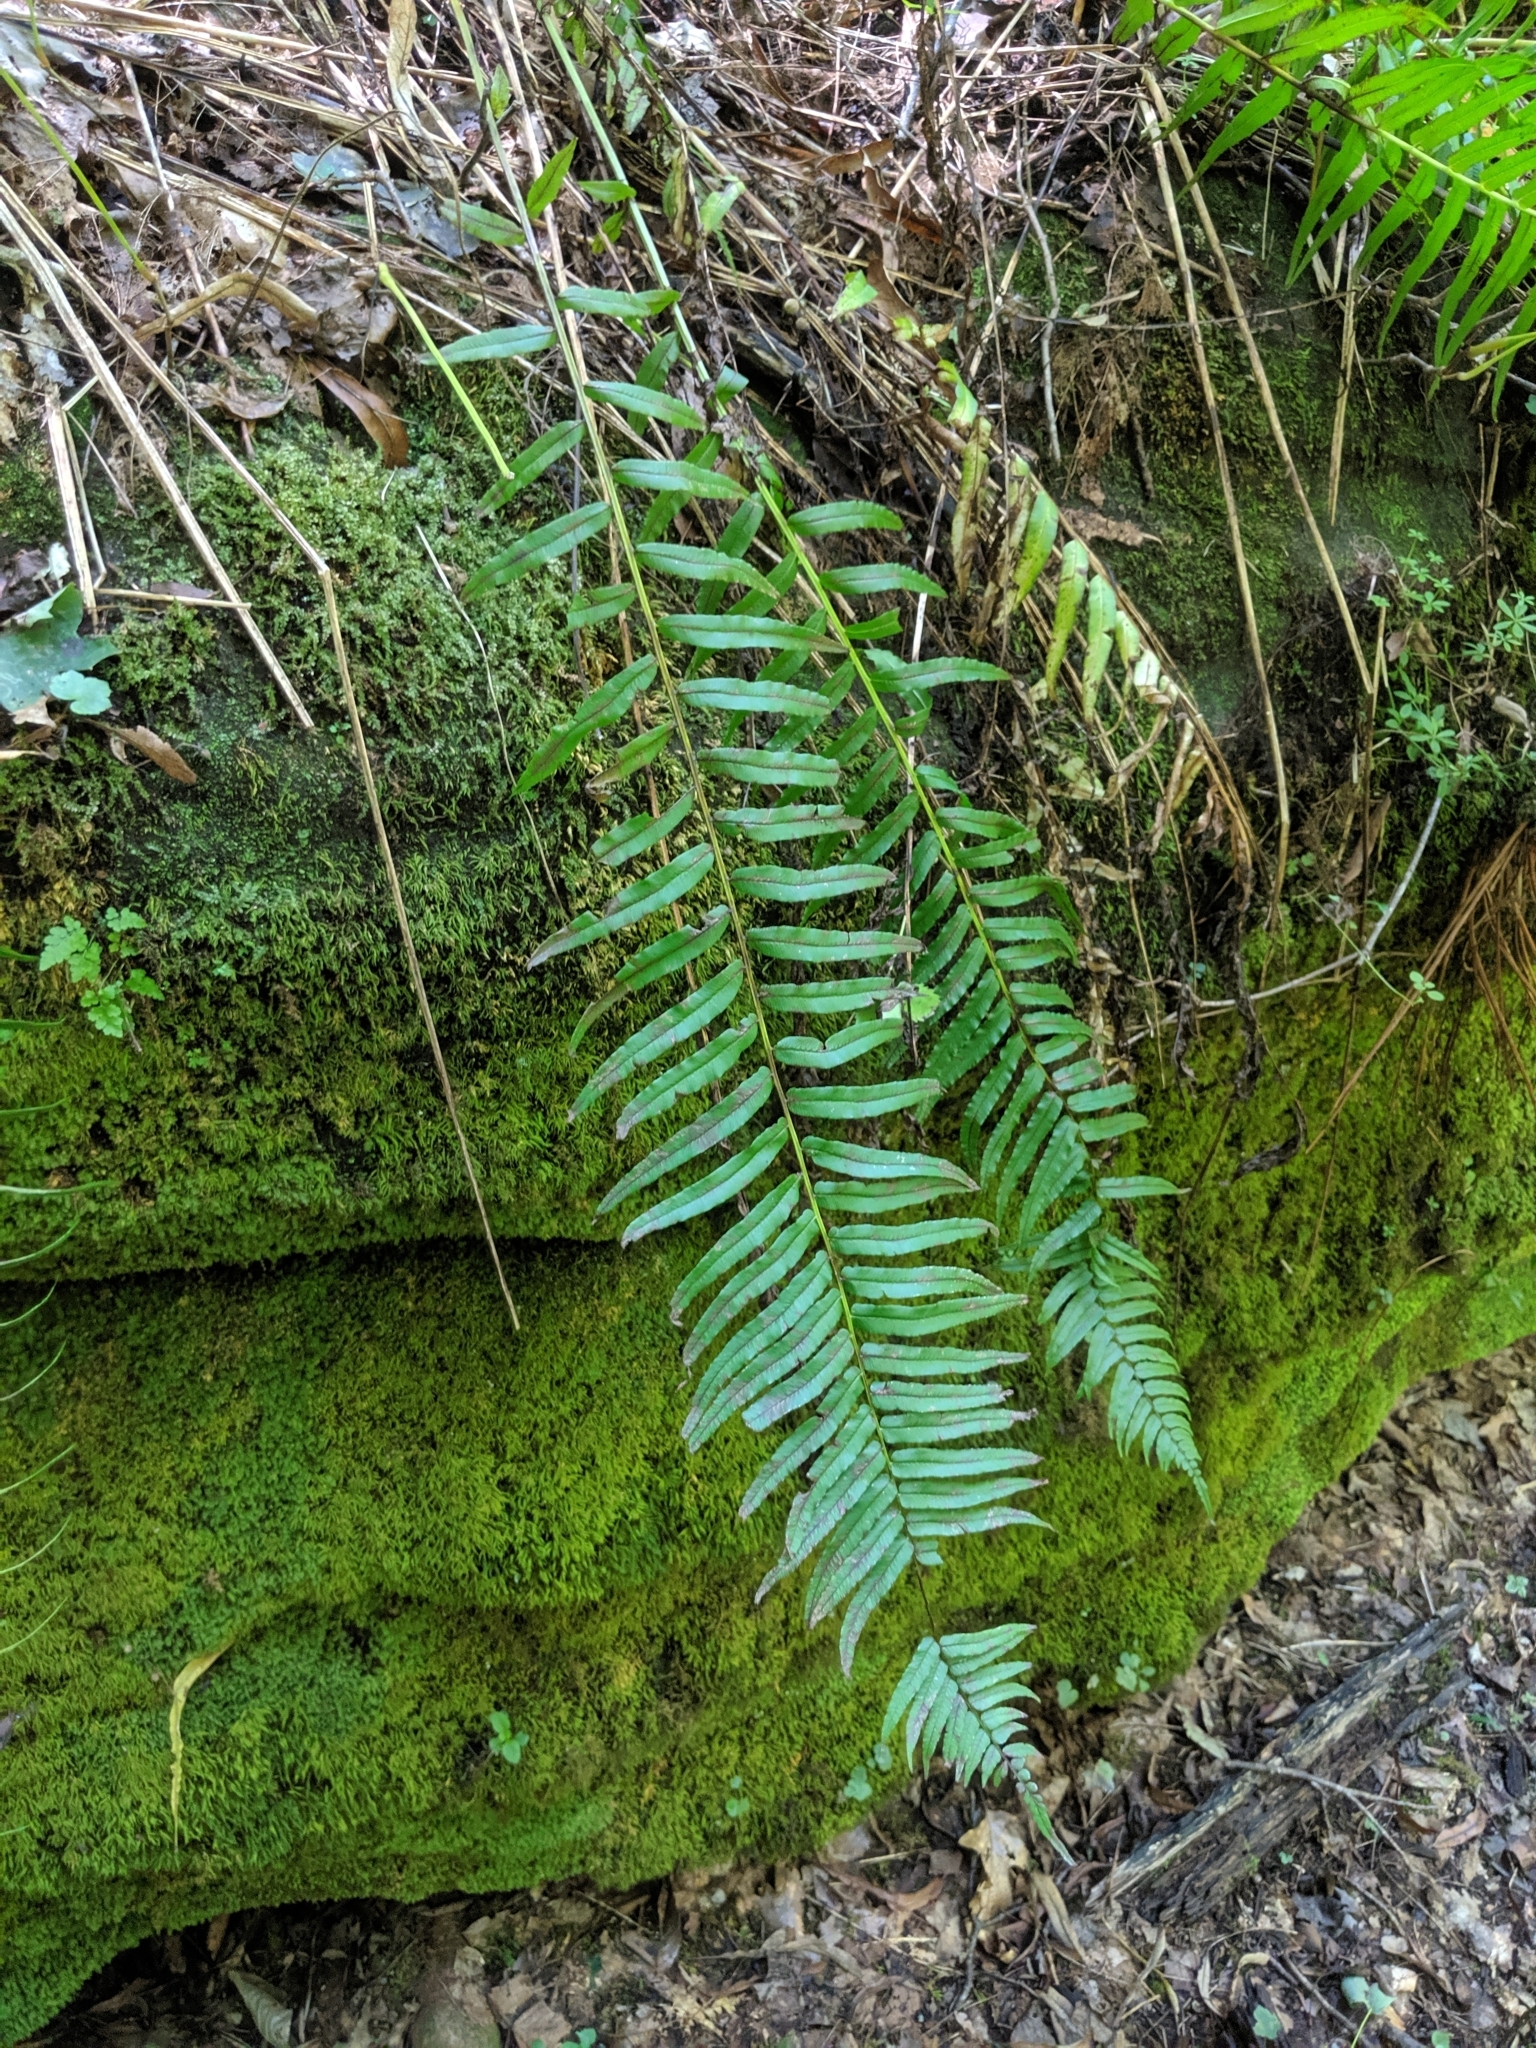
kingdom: Plantae
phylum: Tracheophyta
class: Polypodiopsida
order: Polypodiales
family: Diplaziopsidaceae
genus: Homalosorus
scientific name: Homalosorus pycnocarpos
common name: Glade fern
